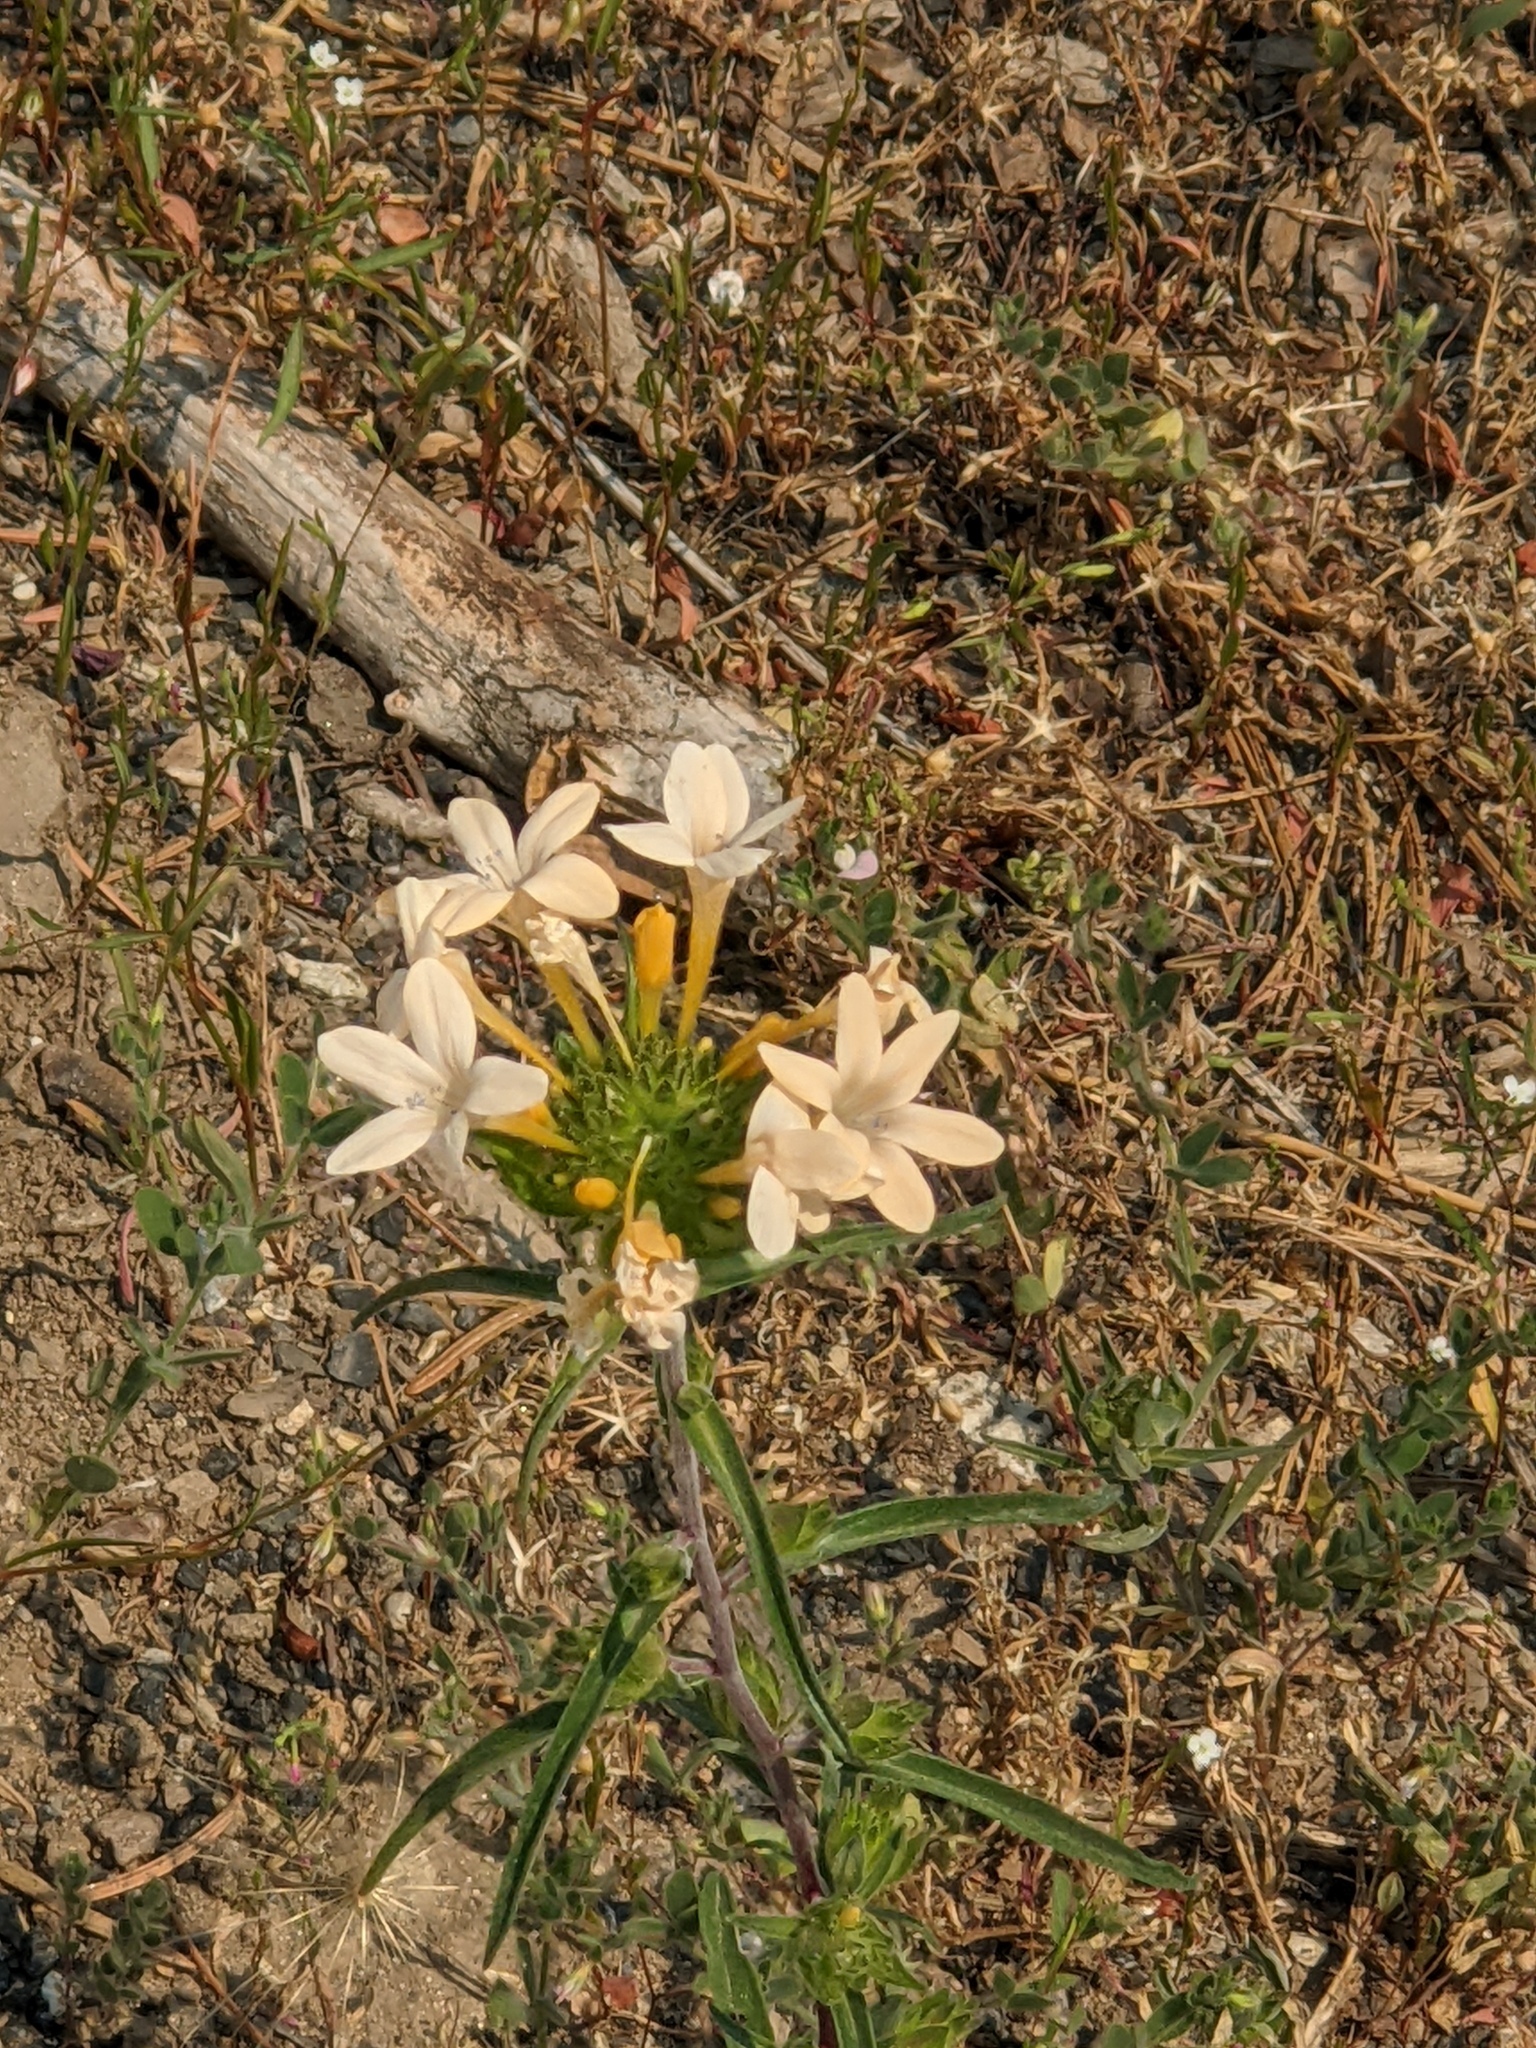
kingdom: Plantae
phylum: Tracheophyta
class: Magnoliopsida
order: Ericales
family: Polemoniaceae
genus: Collomia
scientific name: Collomia grandiflora
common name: California strawflower
